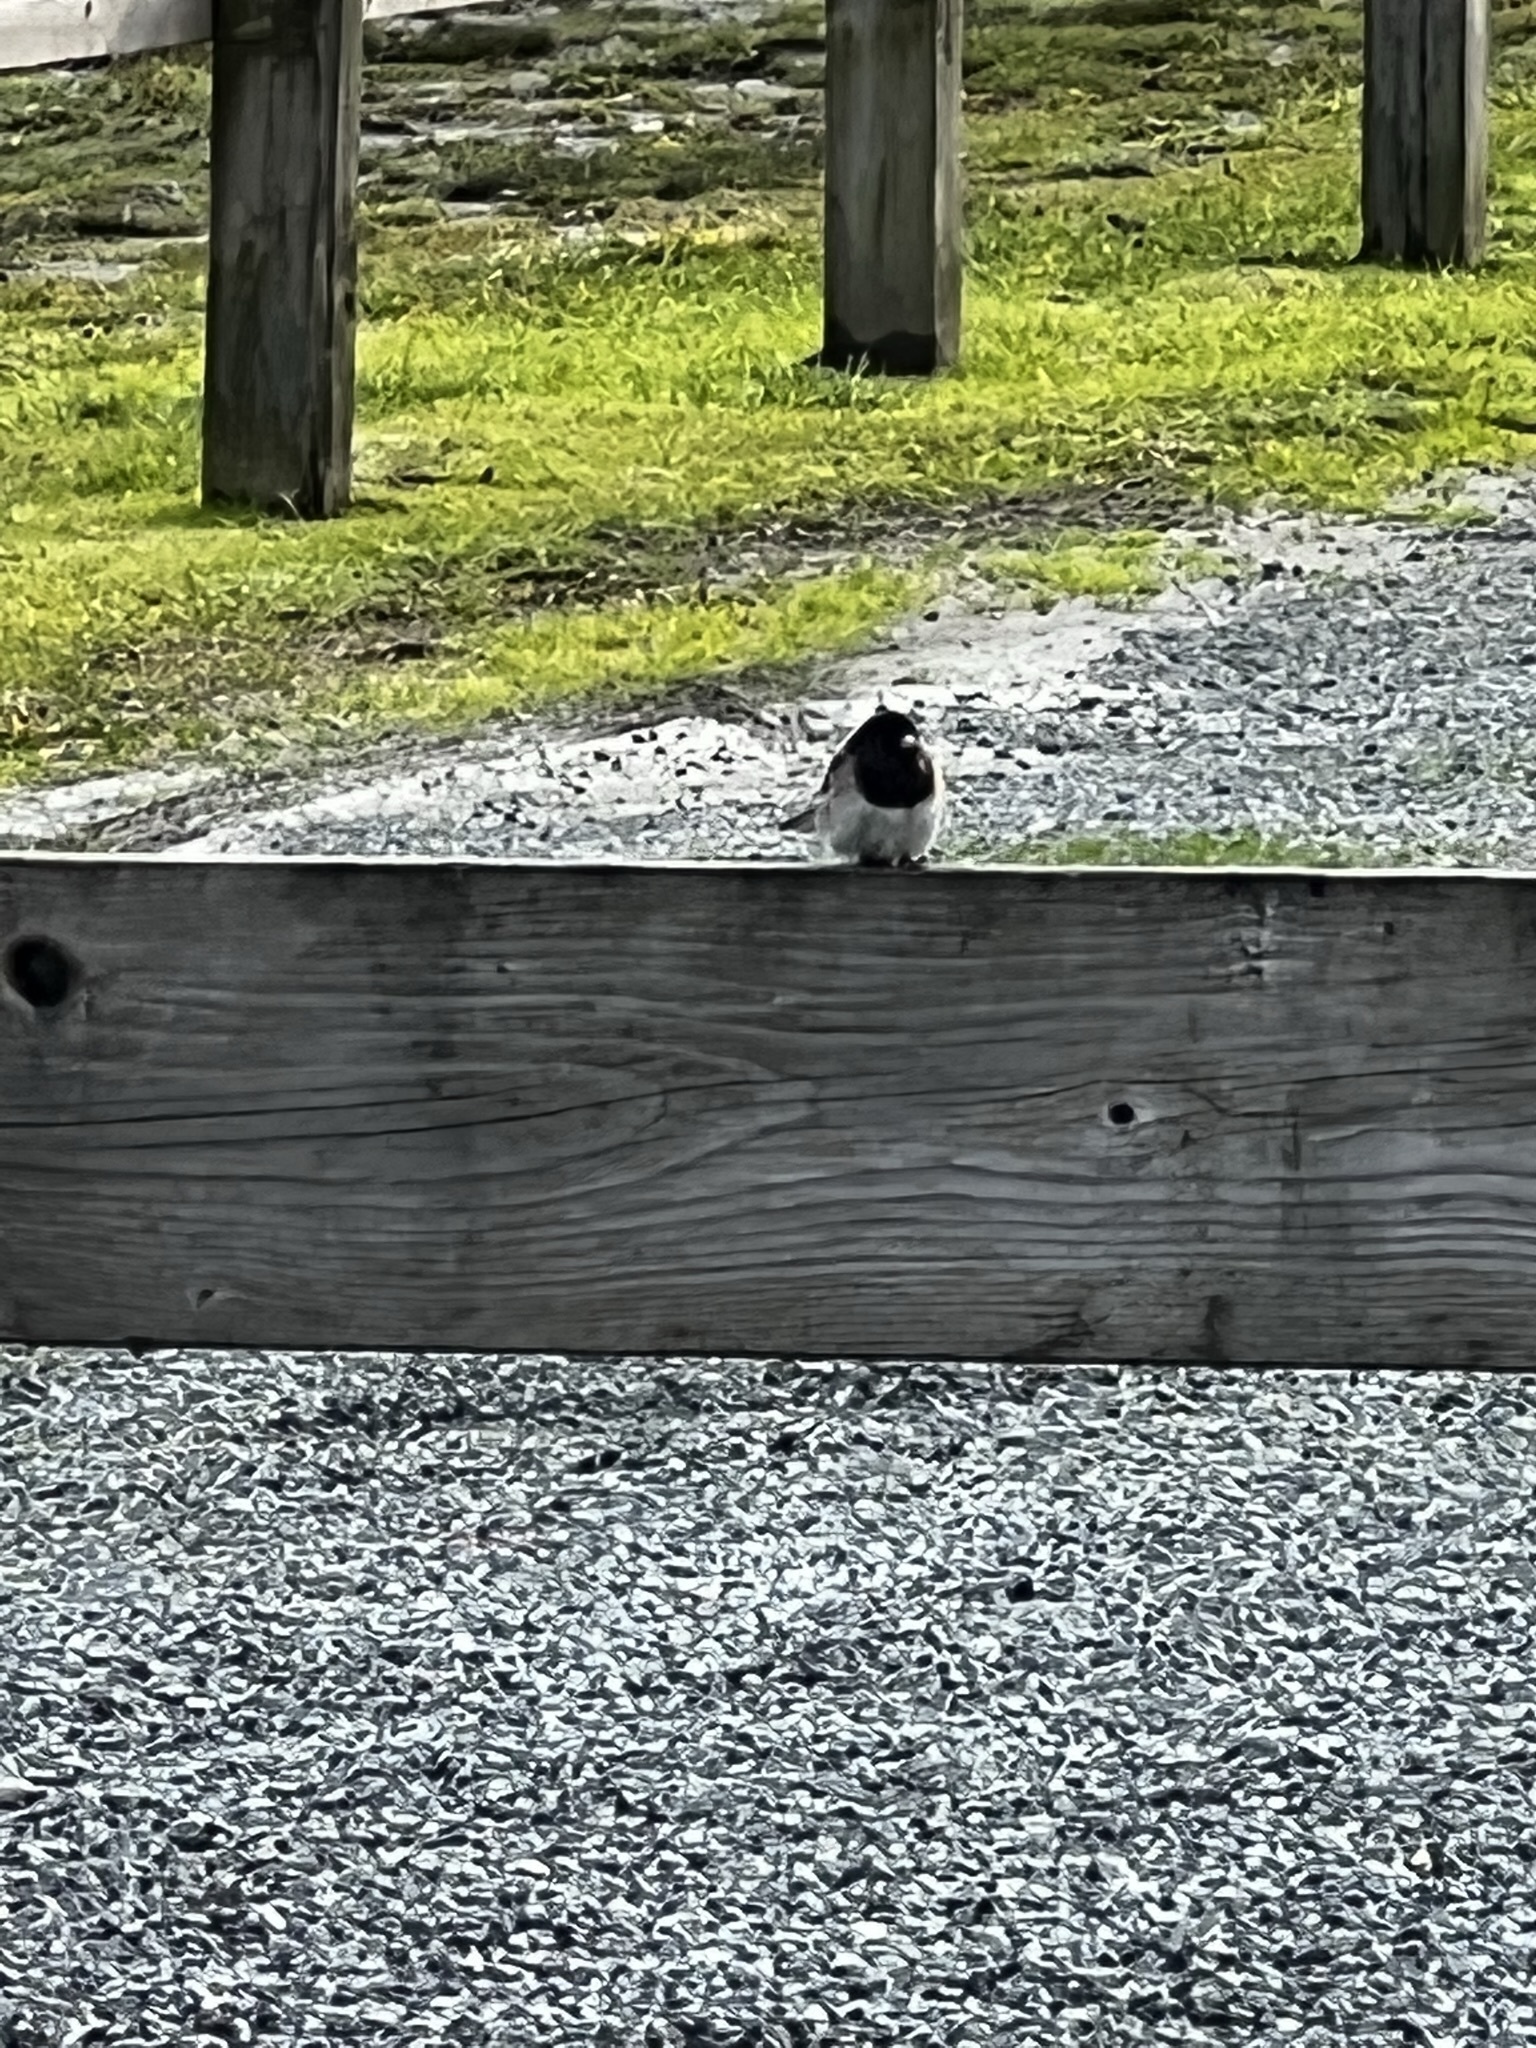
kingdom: Animalia
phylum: Chordata
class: Aves
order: Passeriformes
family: Passerellidae
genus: Junco
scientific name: Junco hyemalis
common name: Dark-eyed junco
